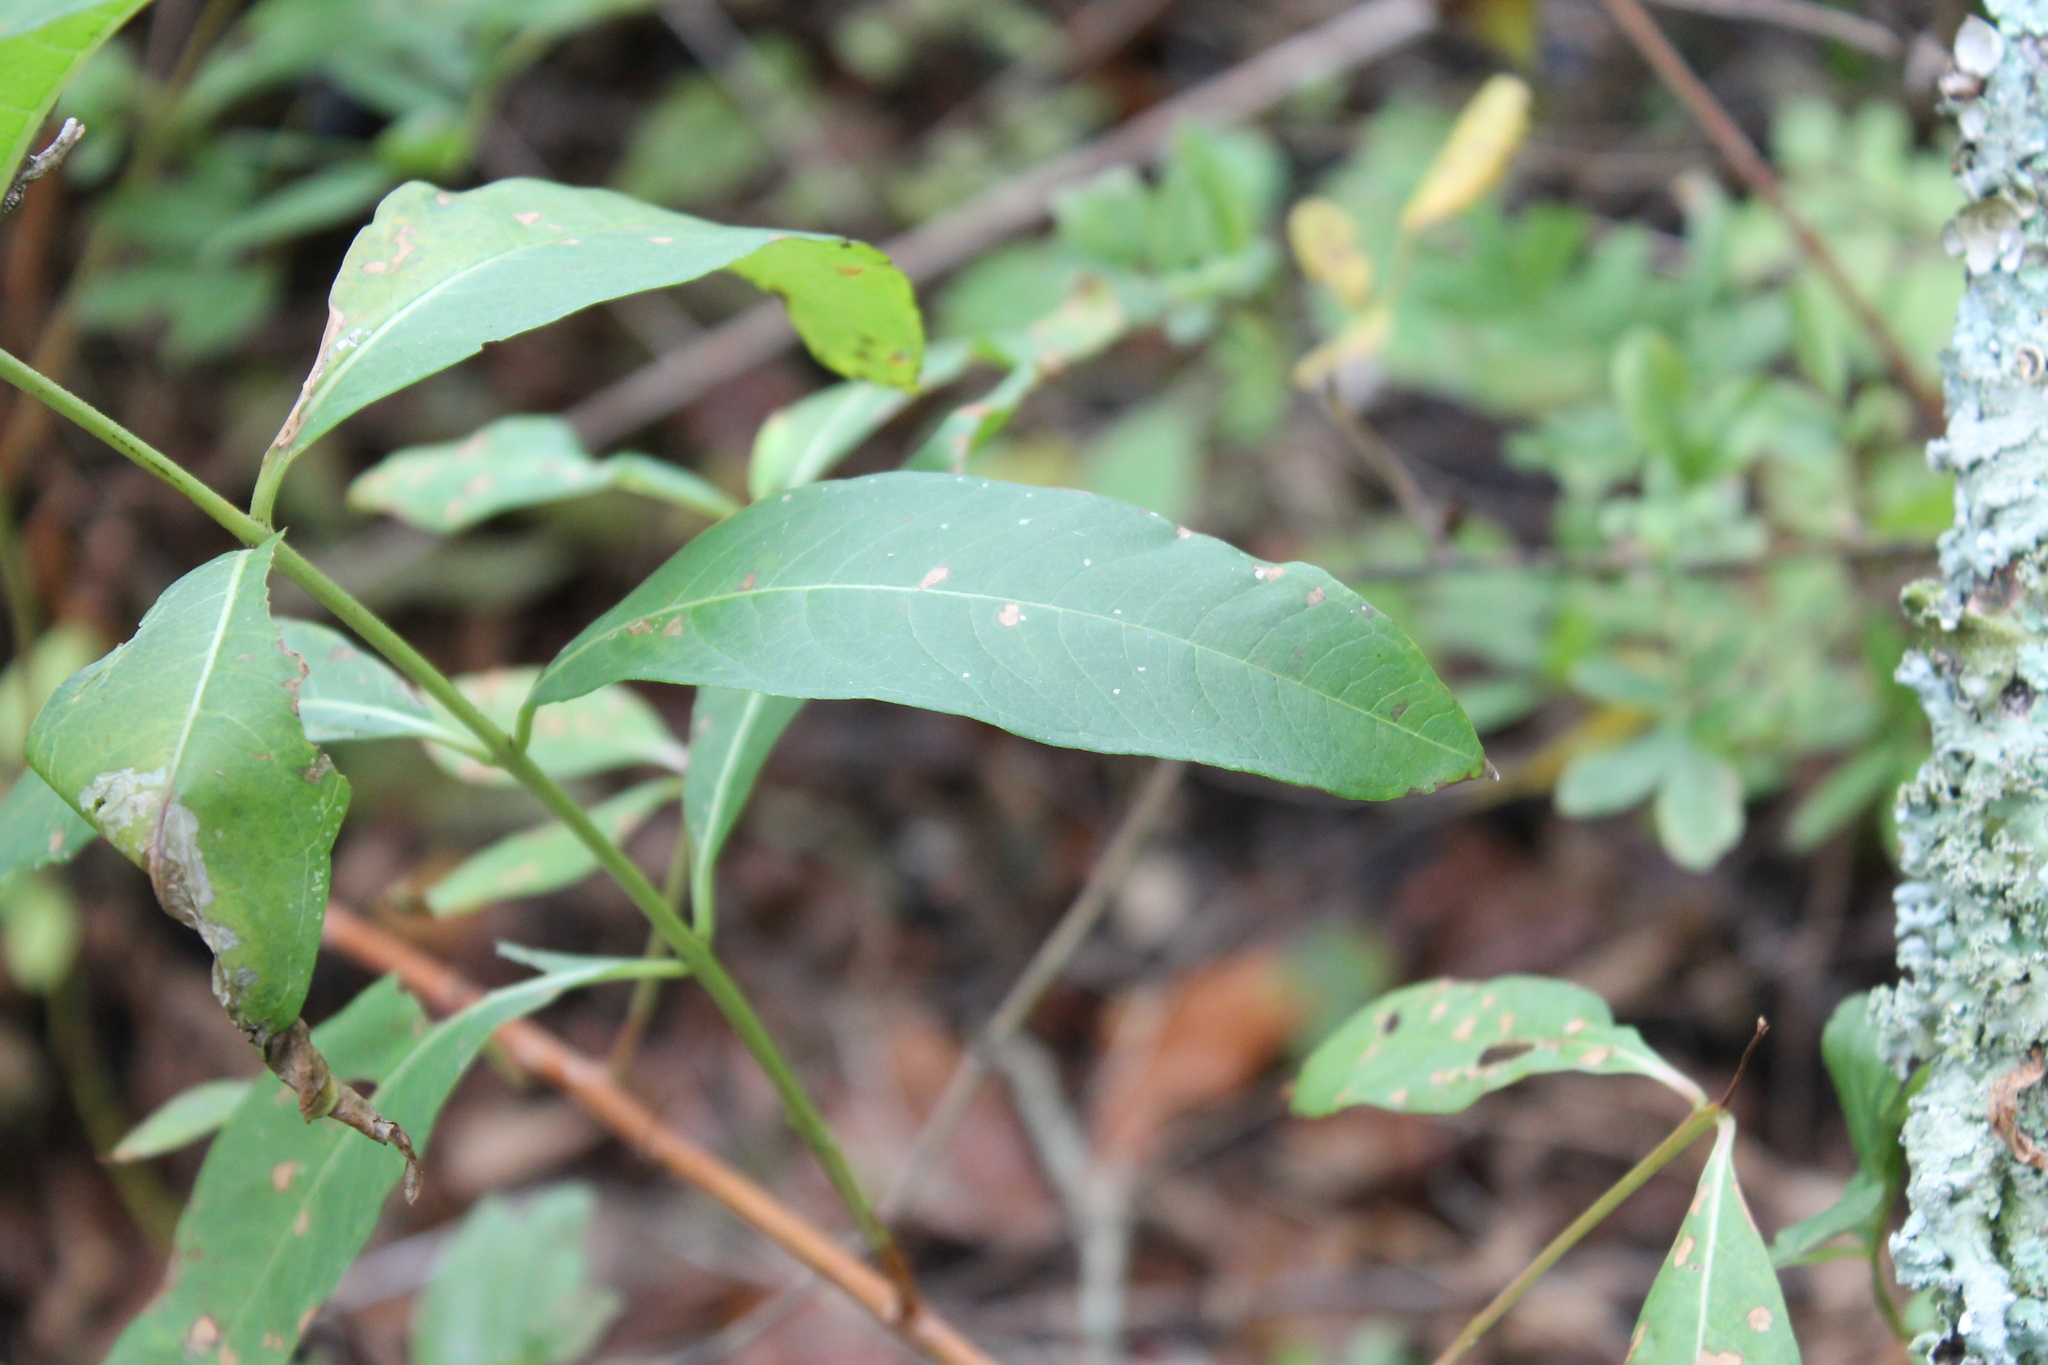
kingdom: Plantae
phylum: Tracheophyta
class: Magnoliopsida
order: Myrtales
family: Lythraceae
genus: Decodon
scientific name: Decodon verticillatus
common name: Hairy swamp loosestrife
